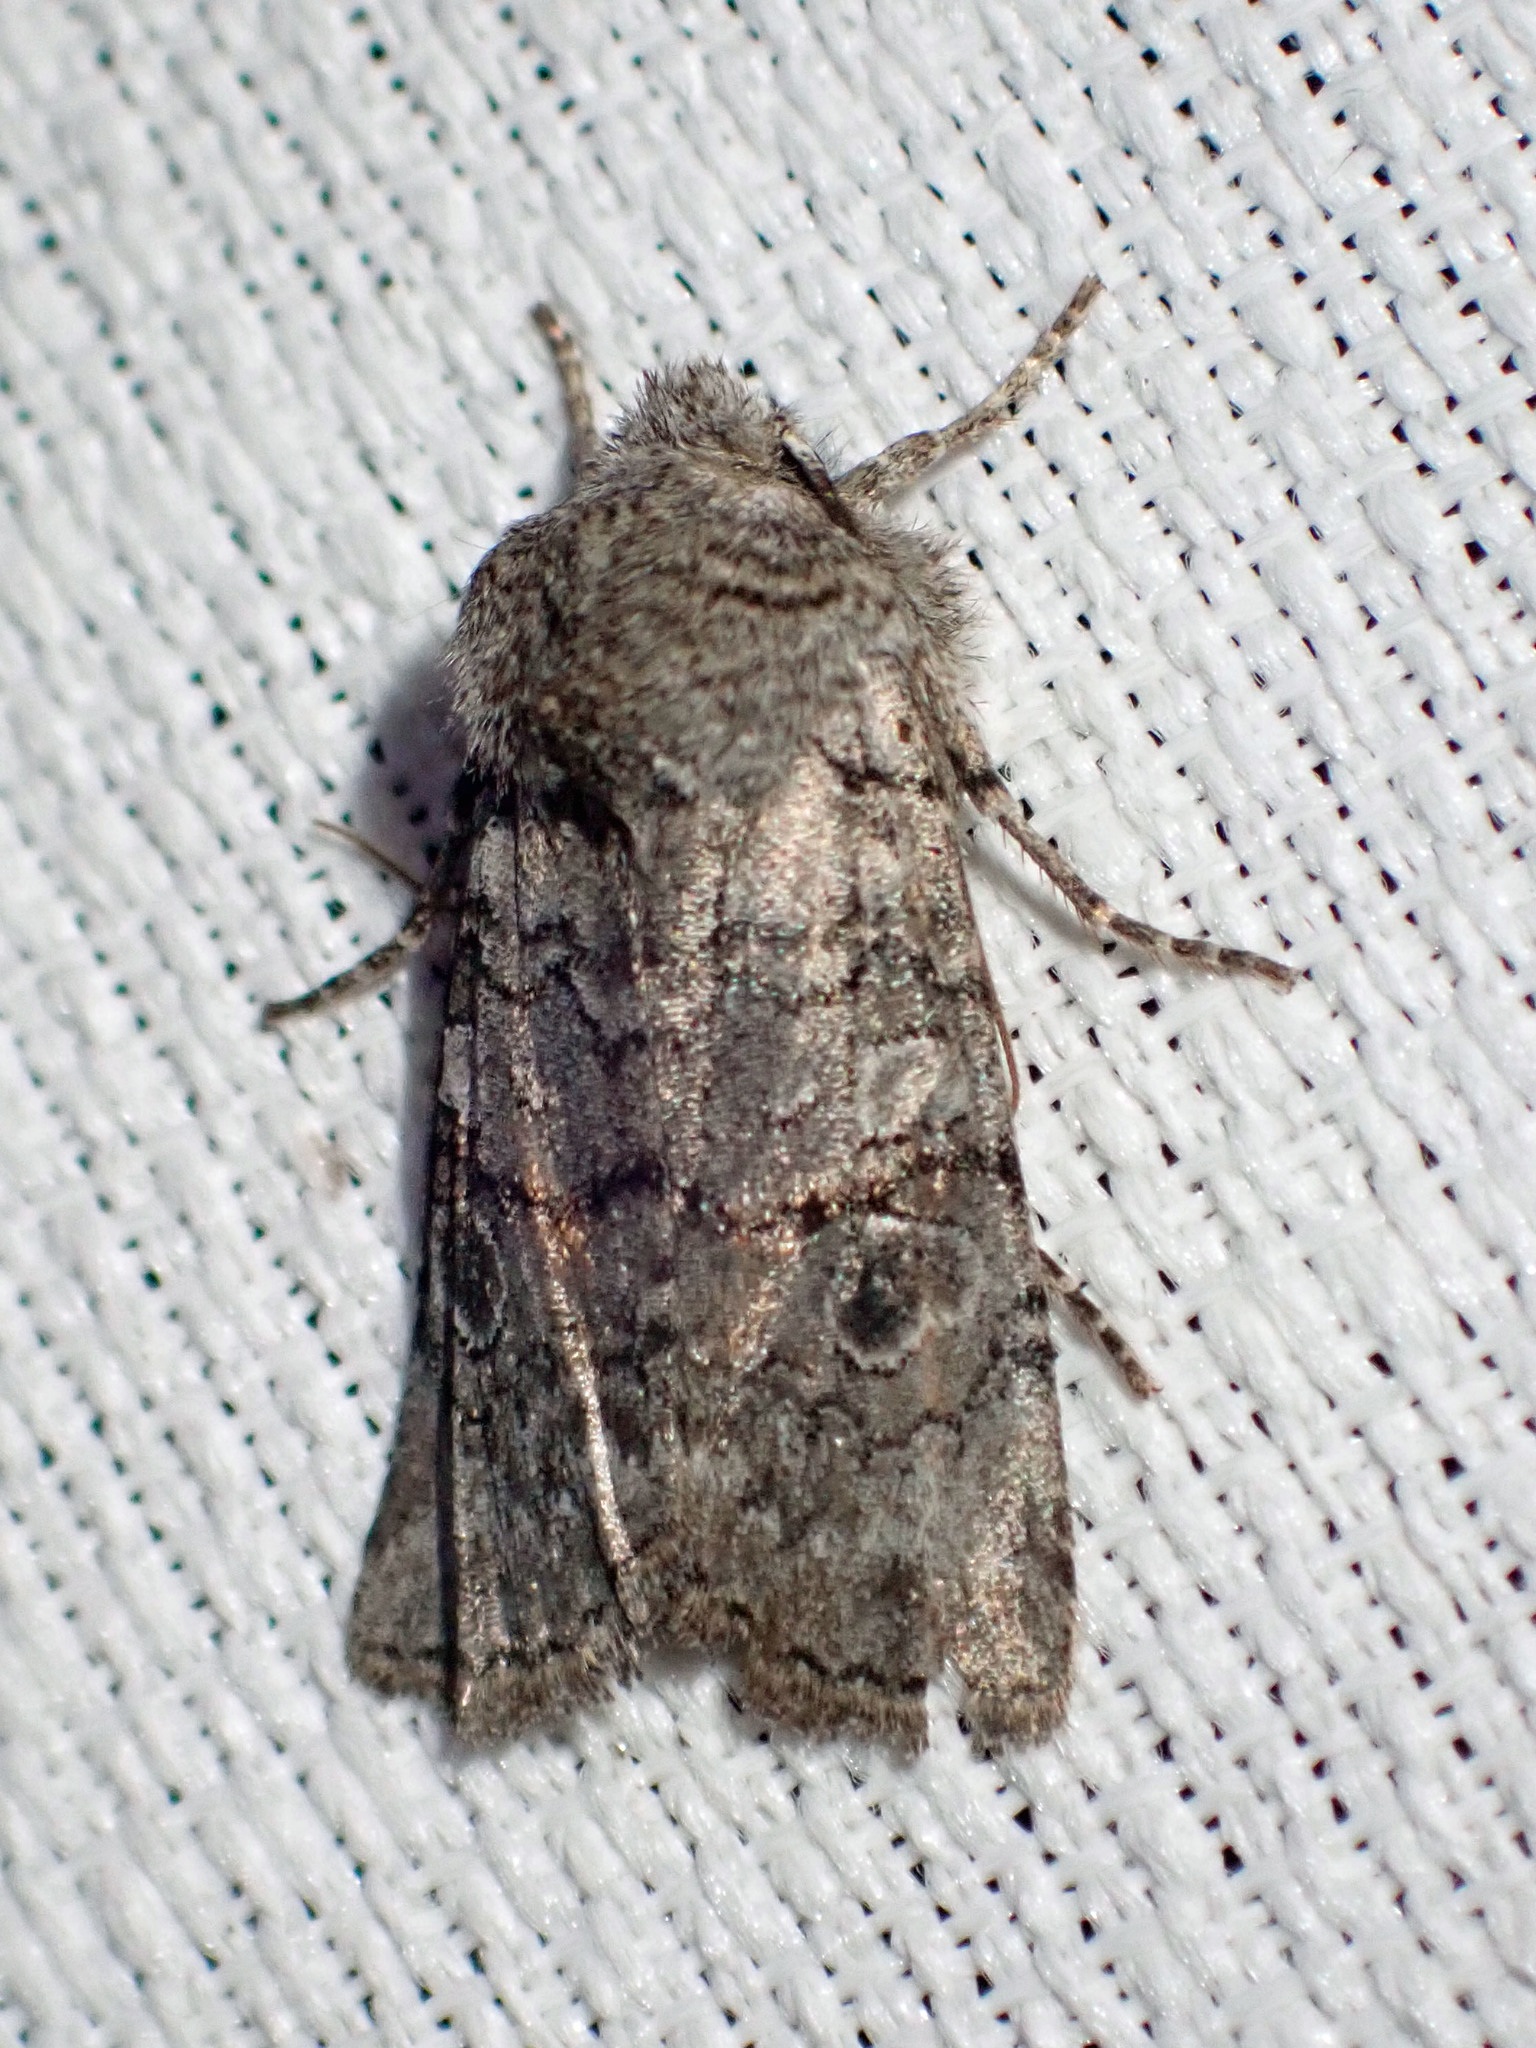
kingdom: Animalia
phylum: Arthropoda
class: Insecta
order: Lepidoptera
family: Noctuidae
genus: Litholomia
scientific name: Litholomia napaea
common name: False pinion moth
